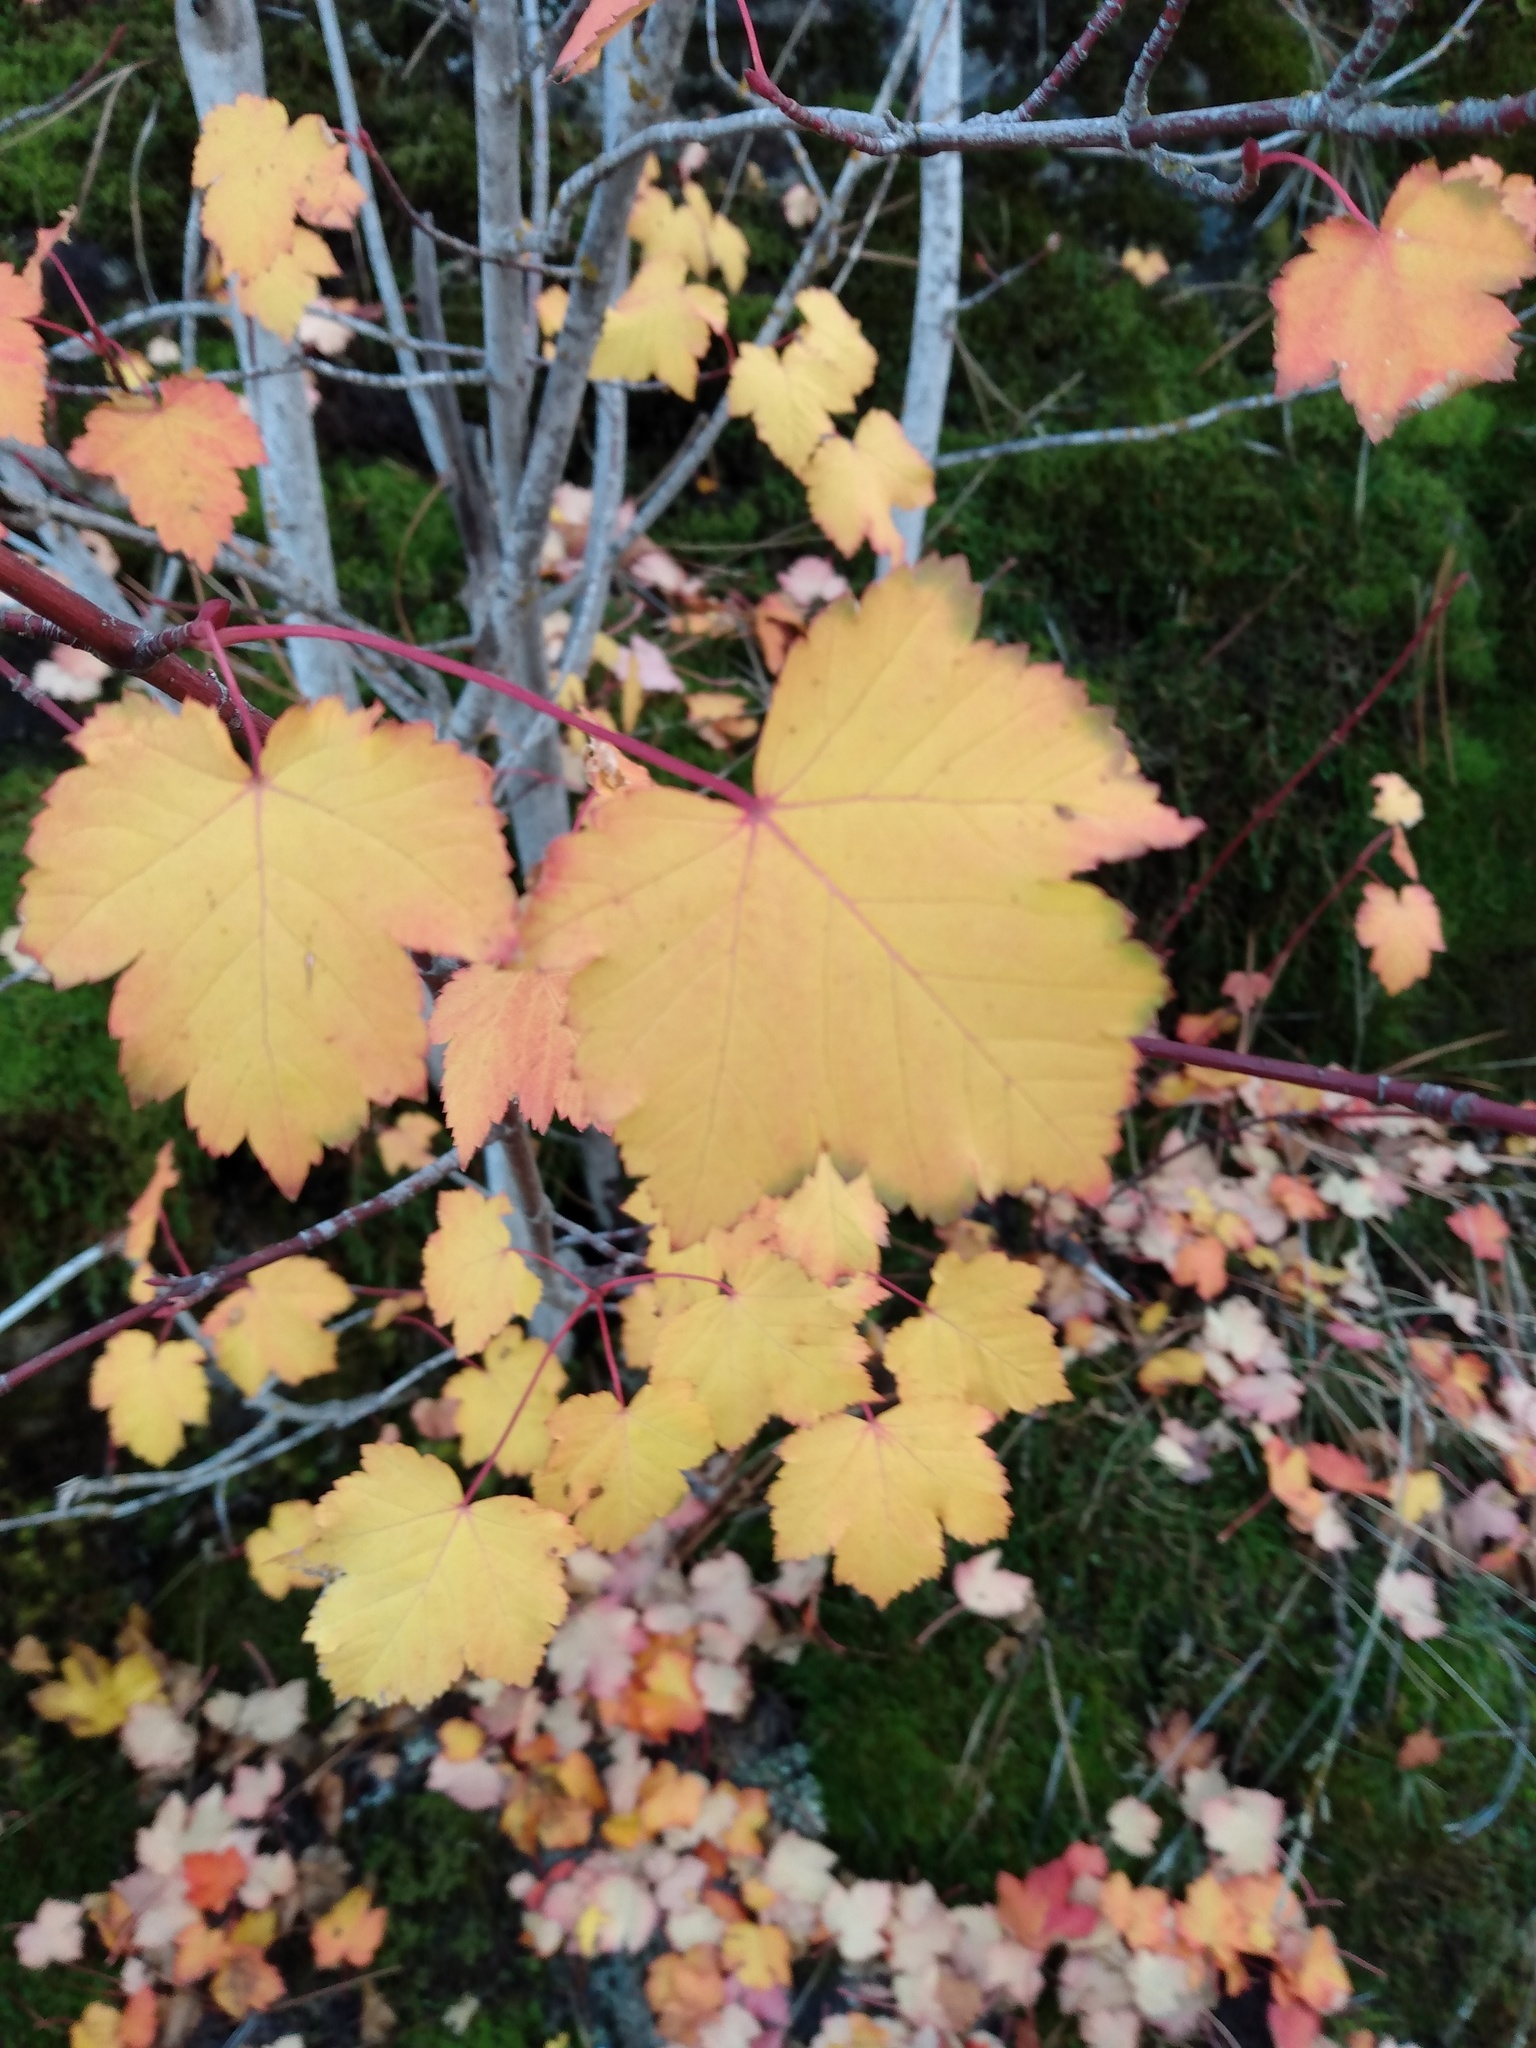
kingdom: Plantae
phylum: Tracheophyta
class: Magnoliopsida
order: Sapindales
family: Sapindaceae
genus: Acer
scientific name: Acer glabrum
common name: Rocky mountain maple
